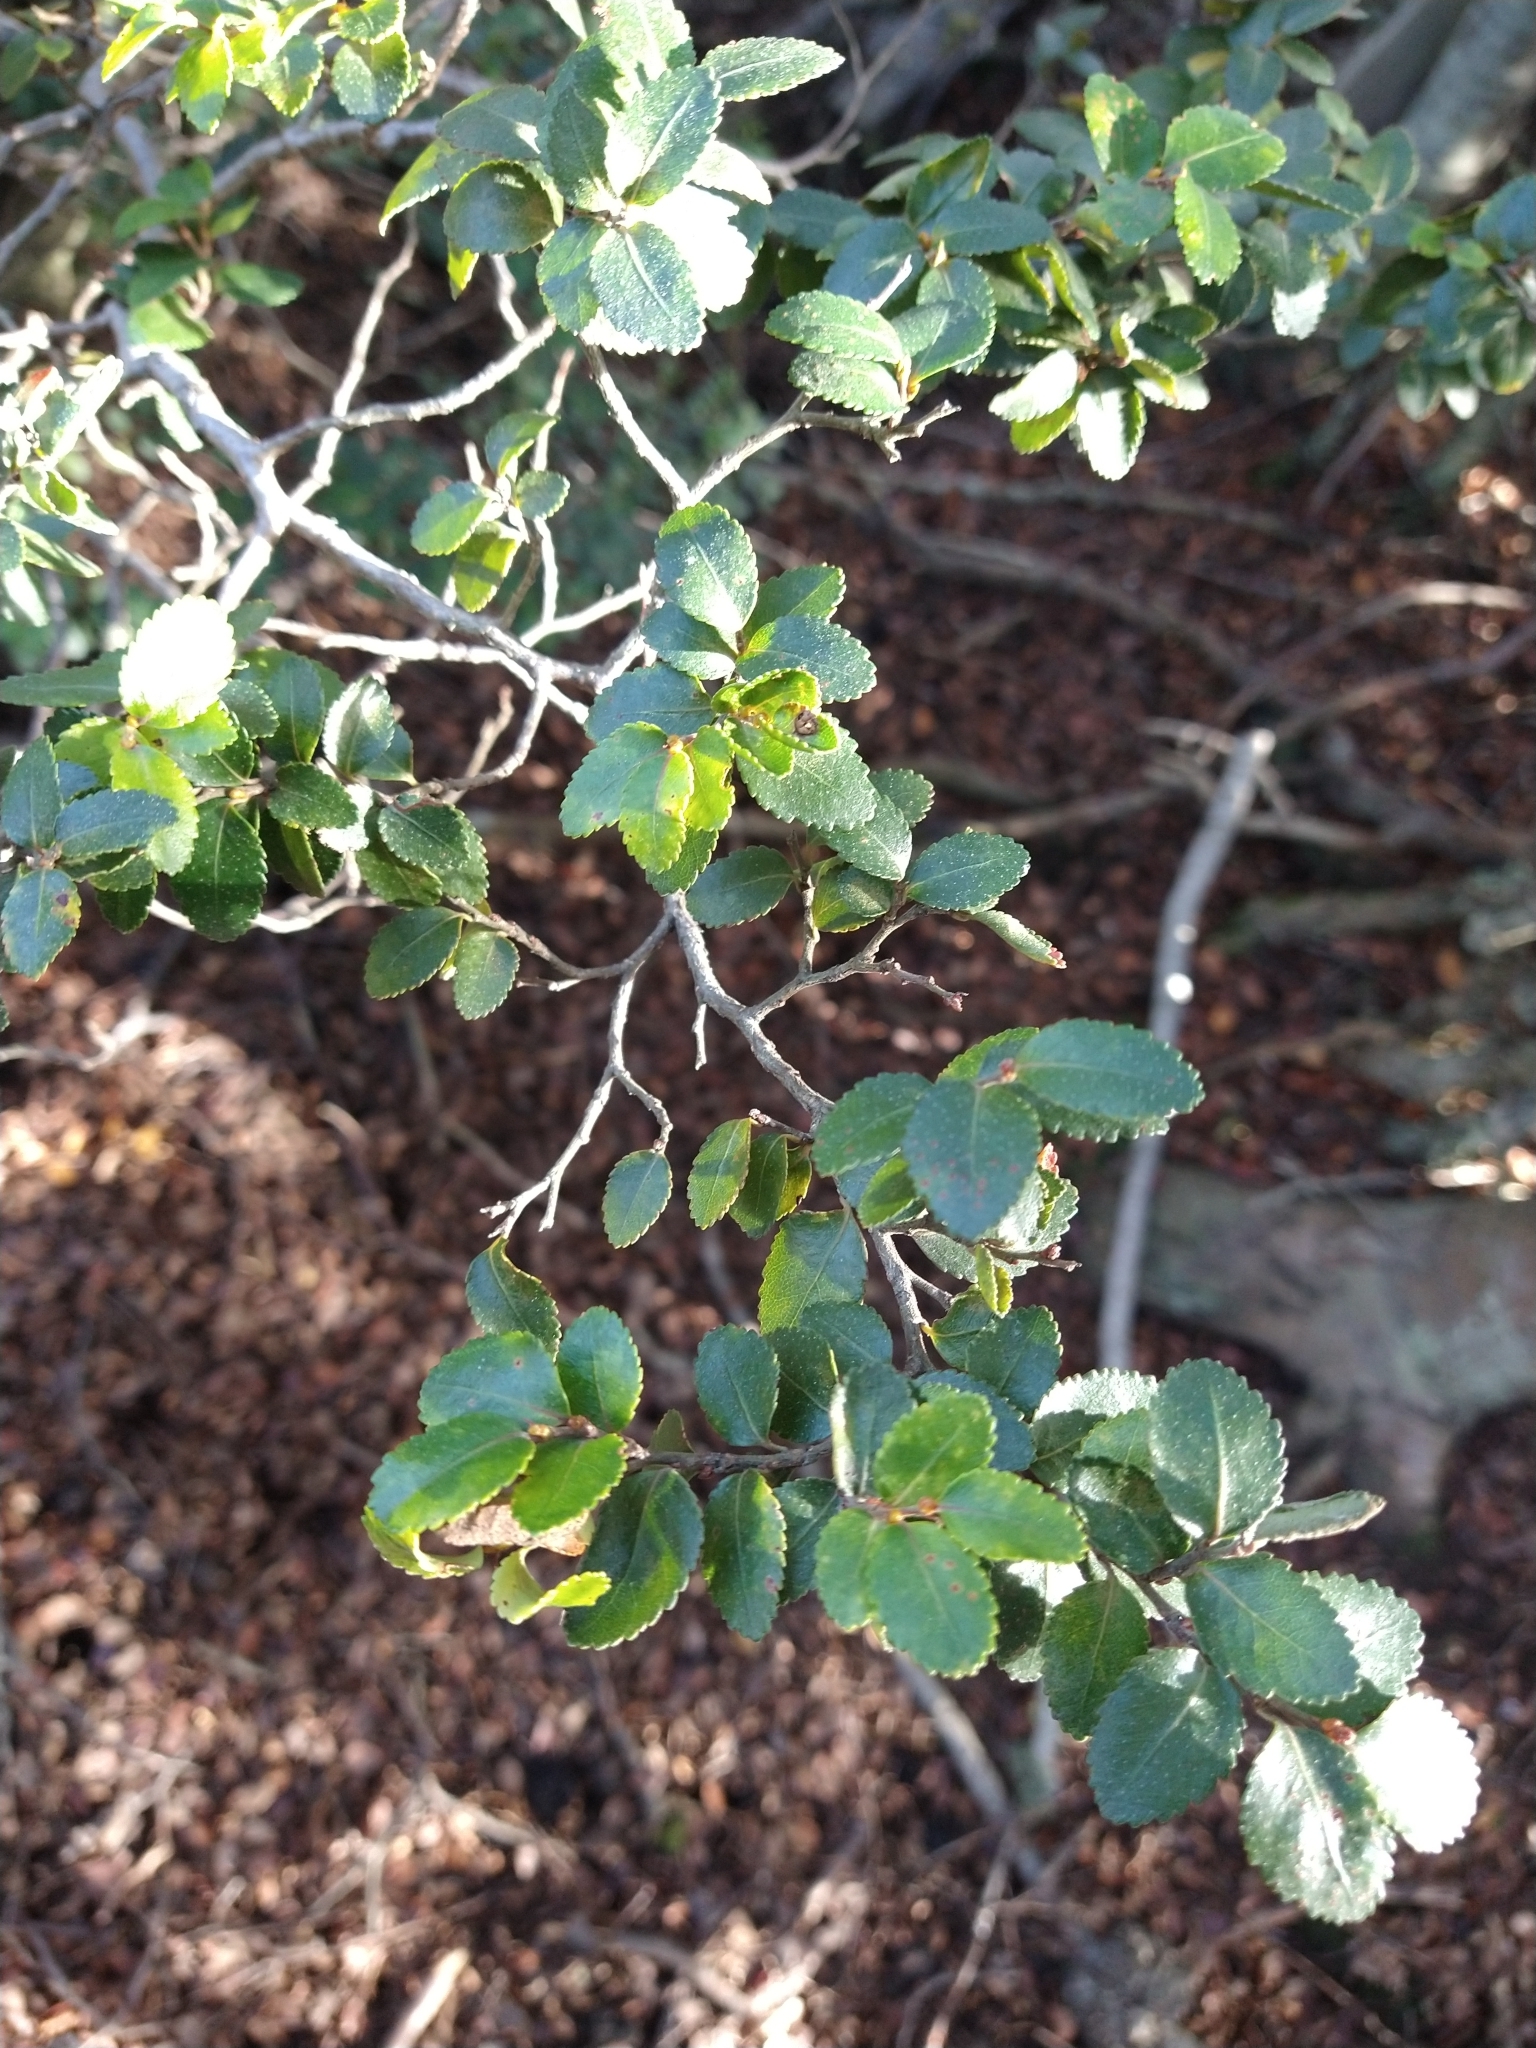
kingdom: Plantae
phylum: Tracheophyta
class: Magnoliopsida
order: Fagales
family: Nothofagaceae
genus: Nothofagus
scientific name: Nothofagus betuloides
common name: Magellan's beech
